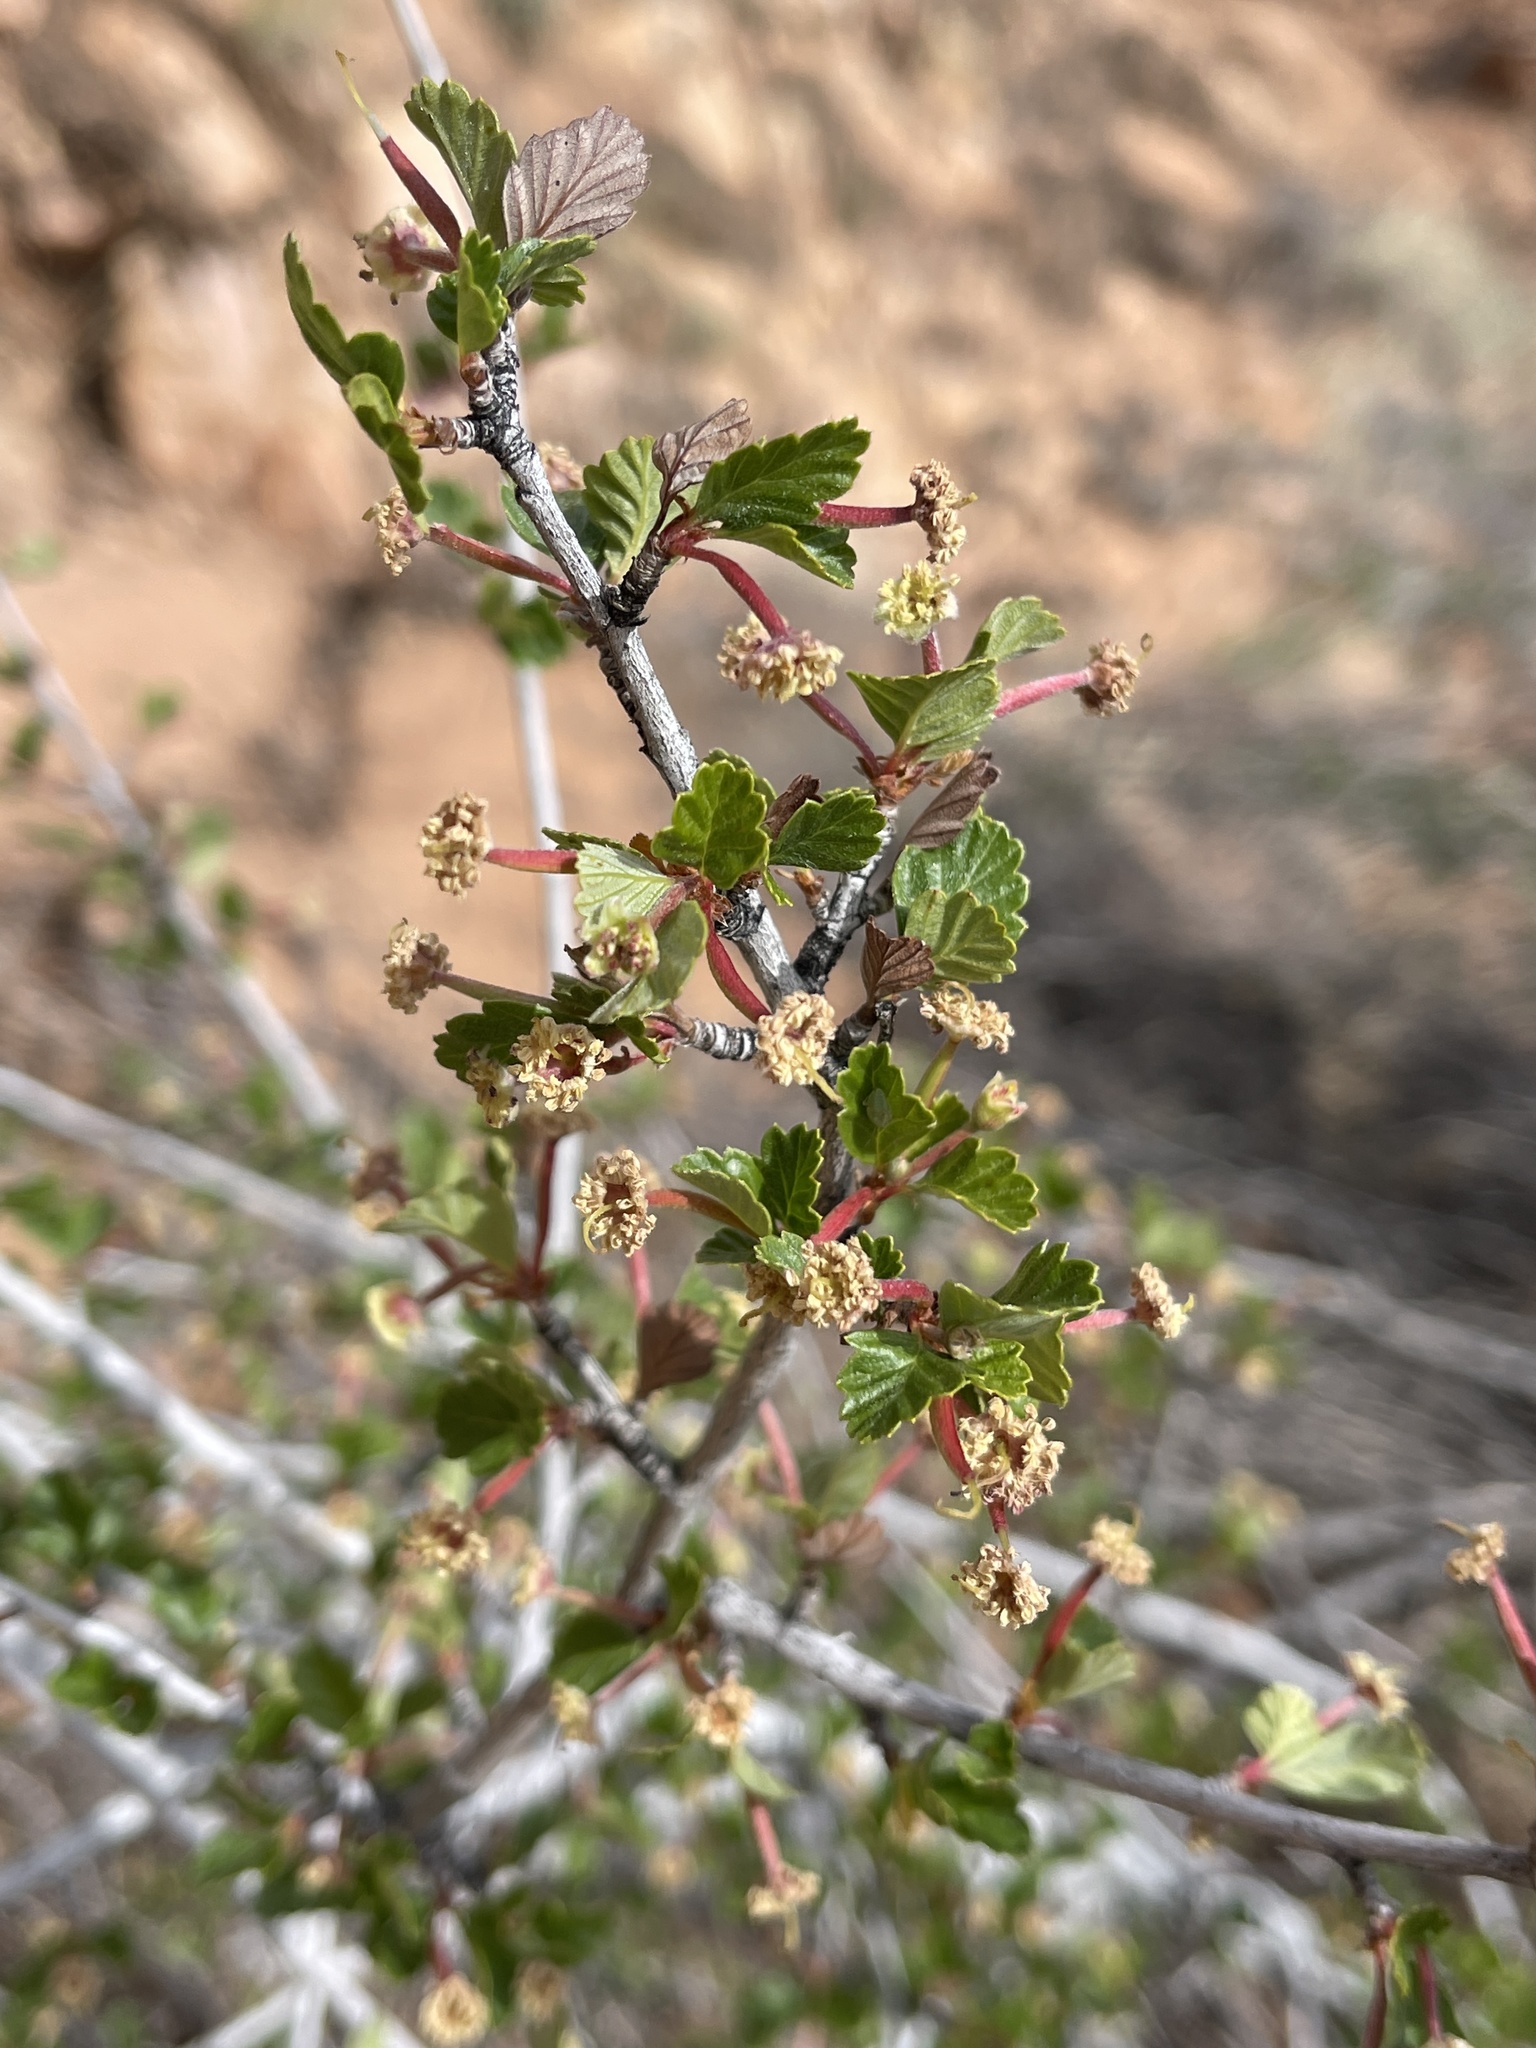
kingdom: Plantae
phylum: Tracheophyta
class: Magnoliopsida
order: Rosales
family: Rosaceae
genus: Cercocarpus
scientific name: Cercocarpus montanus
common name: Alder-leaf cercocarpus
